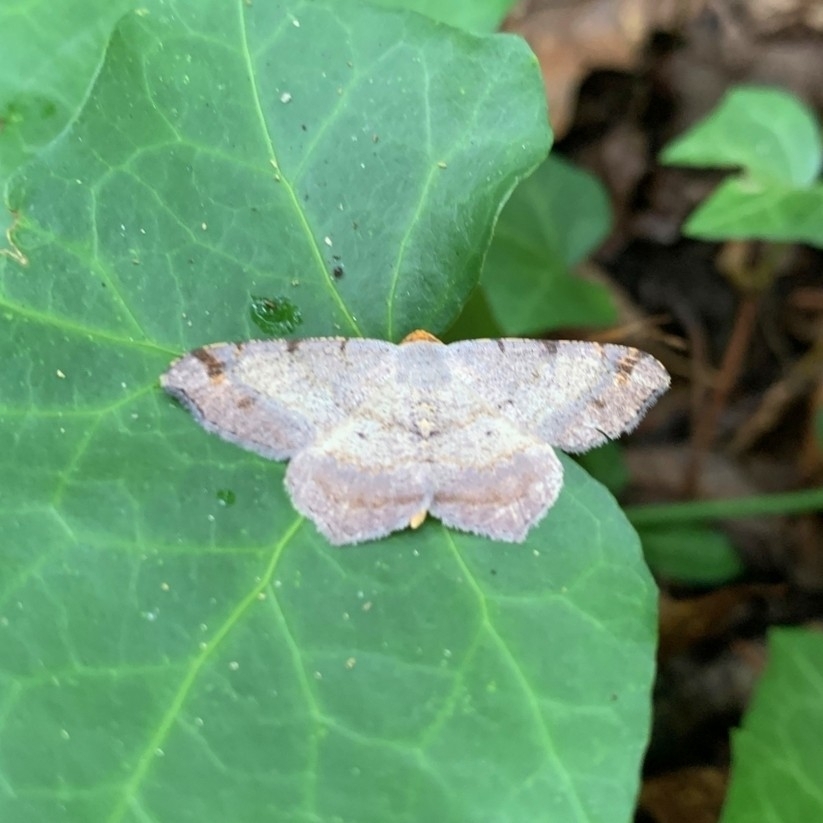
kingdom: Animalia
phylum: Arthropoda
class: Insecta
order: Lepidoptera
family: Geometridae
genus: Macaria
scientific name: Macaria bicolorata
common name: Dingy angle
